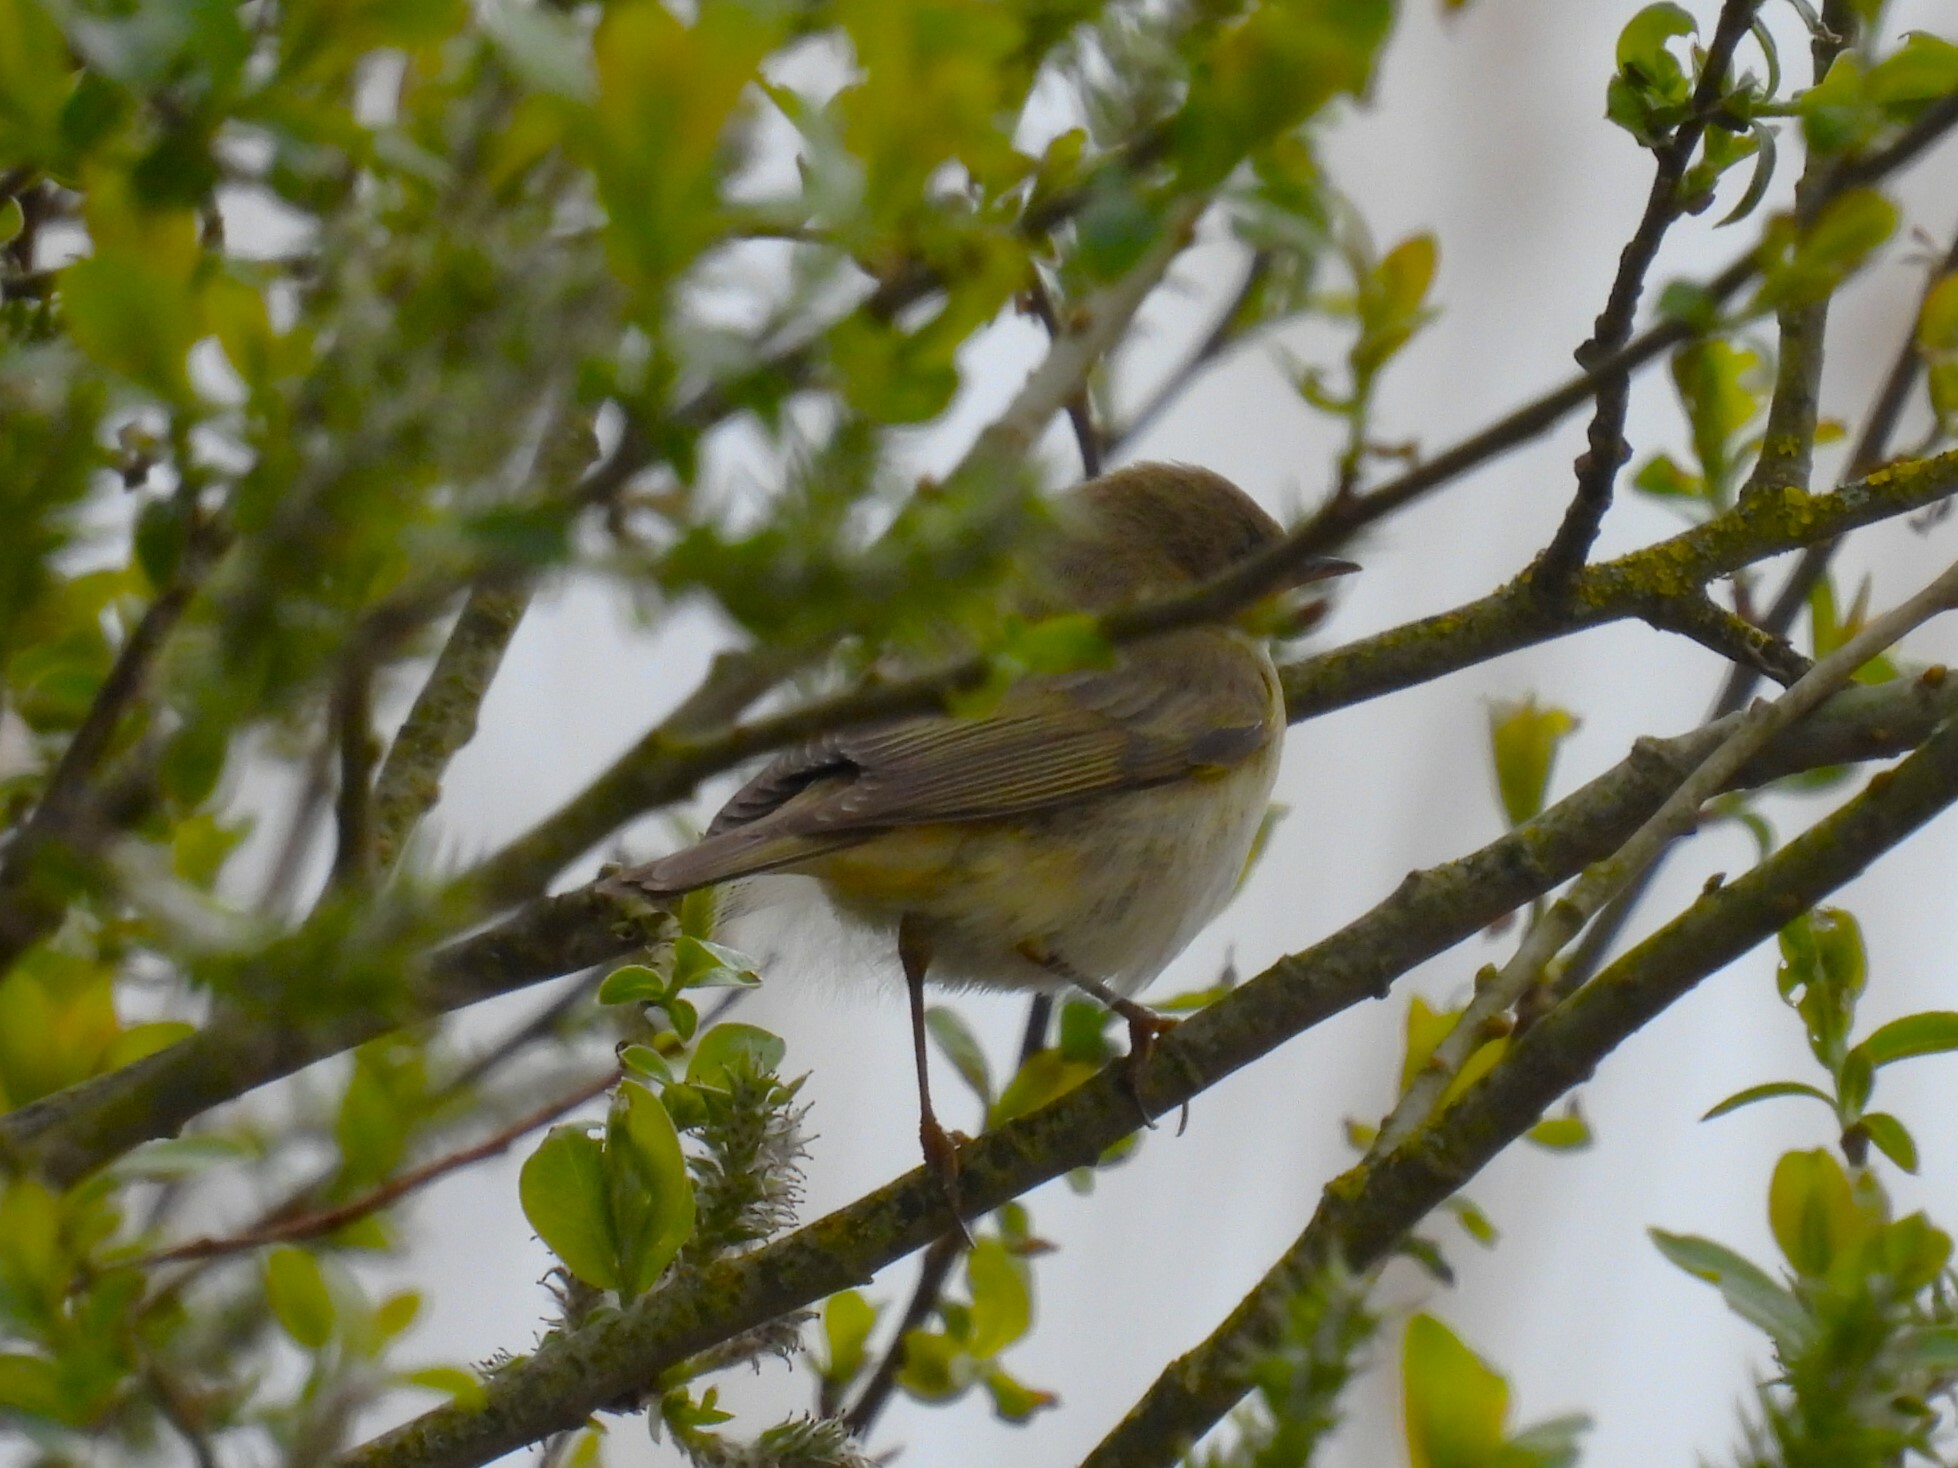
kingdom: Animalia
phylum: Chordata
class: Aves
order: Passeriformes
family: Phylloscopidae
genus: Phylloscopus
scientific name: Phylloscopus trochilus
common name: Willow warbler
